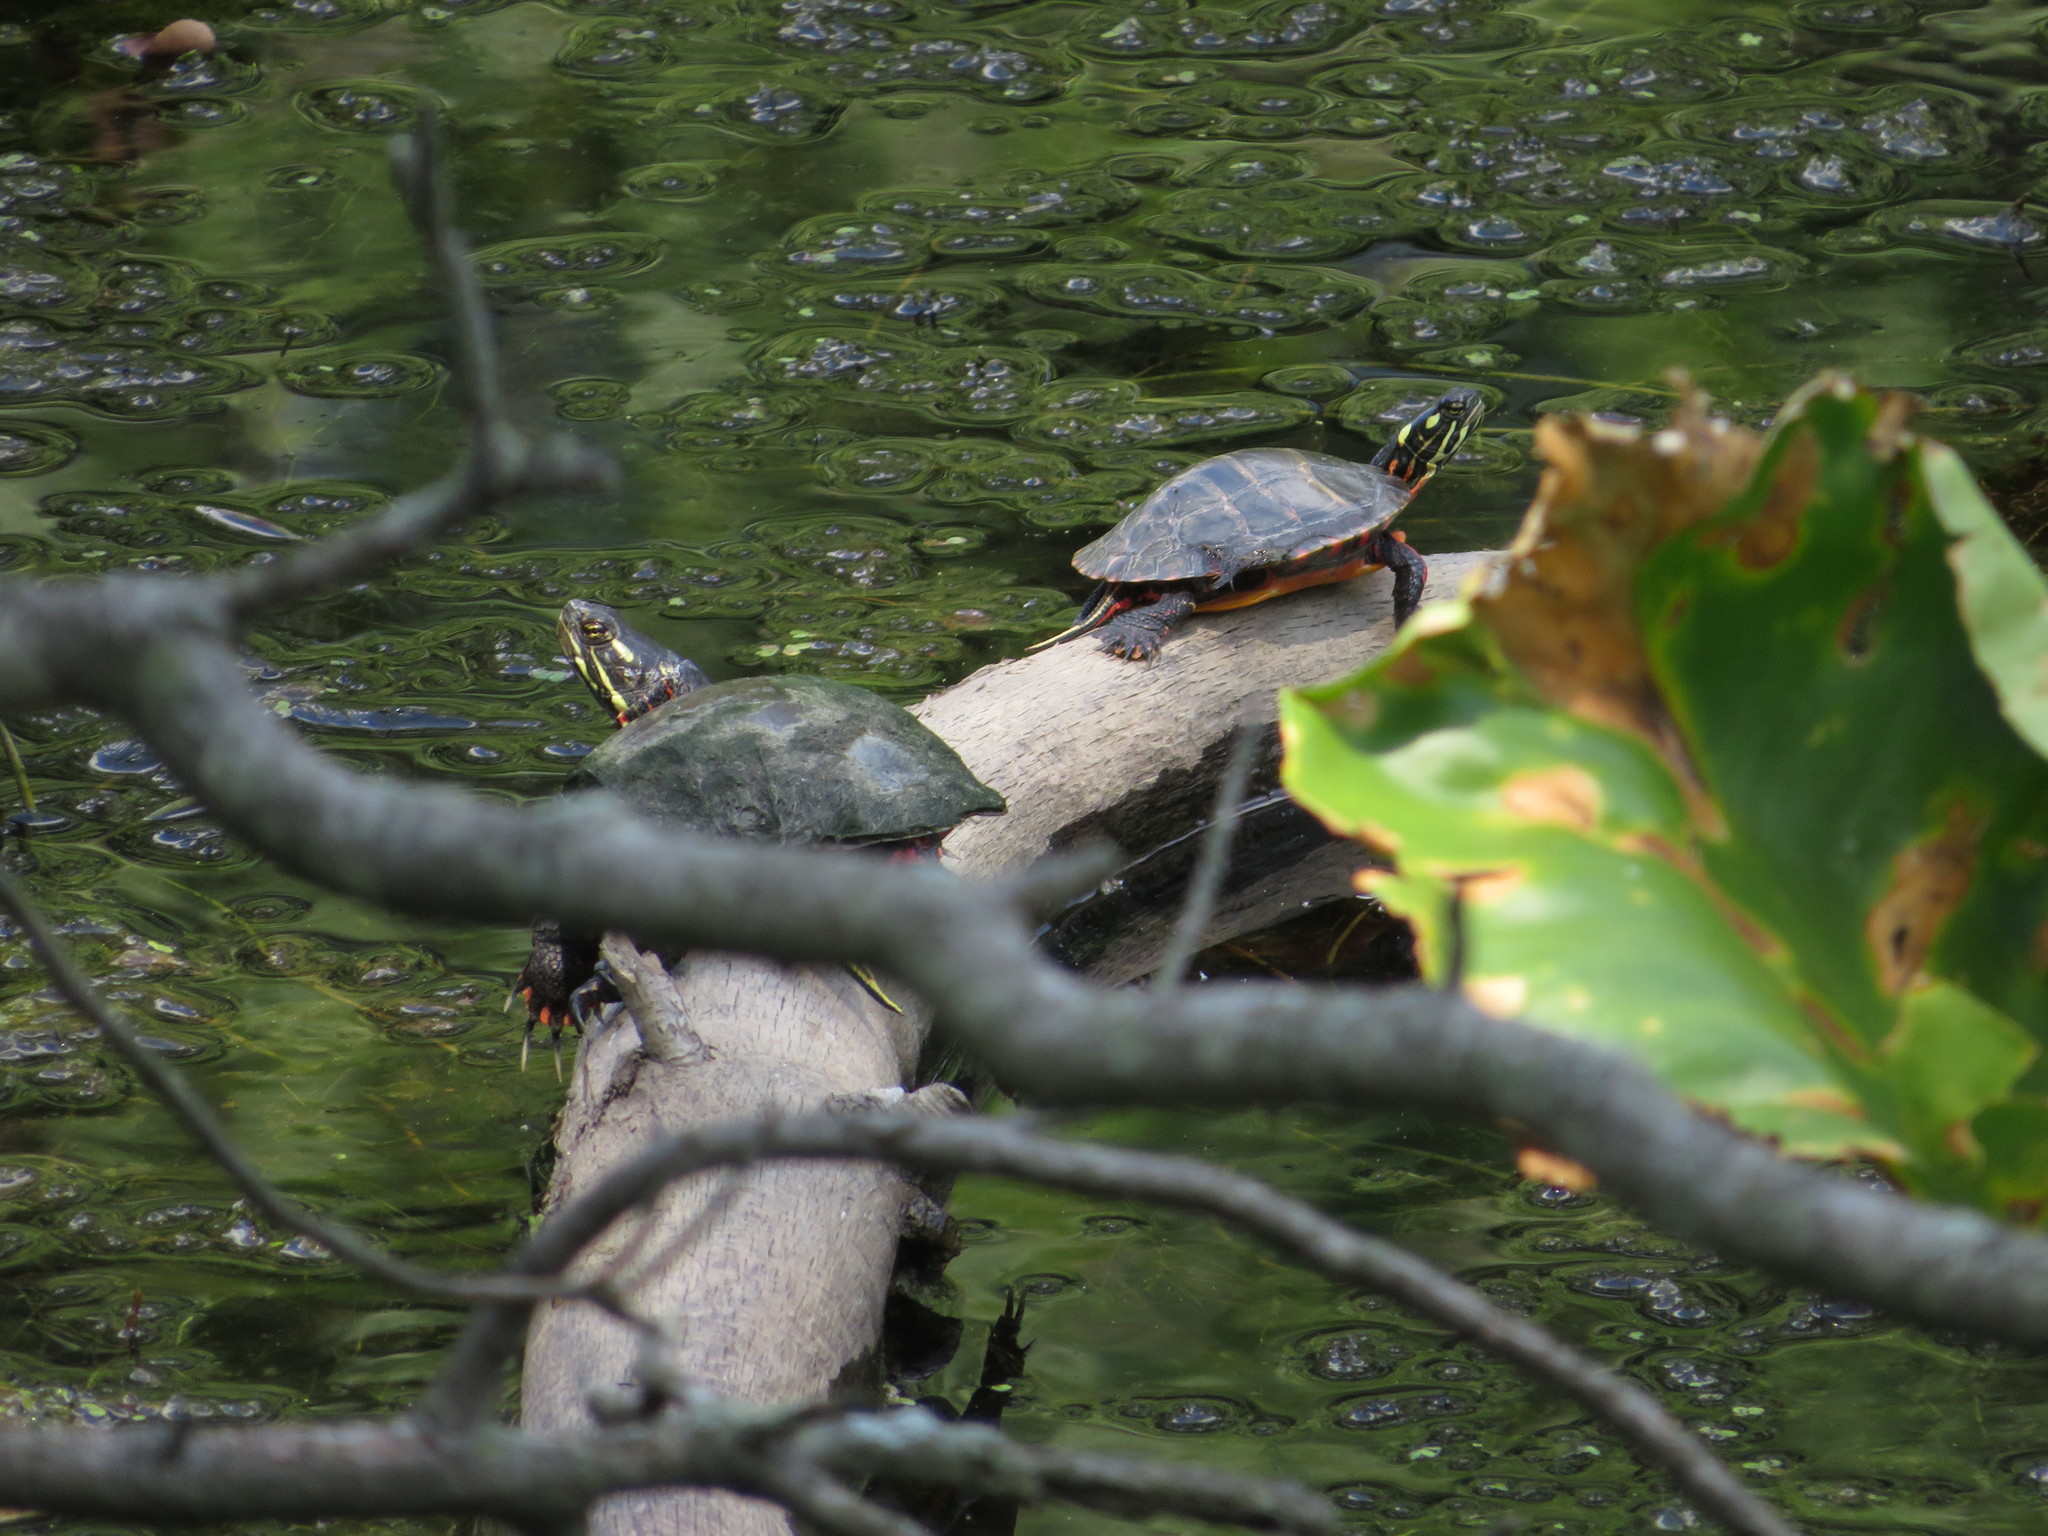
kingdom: Animalia
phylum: Chordata
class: Testudines
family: Emydidae
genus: Chrysemys
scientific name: Chrysemys picta
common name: Painted turtle
